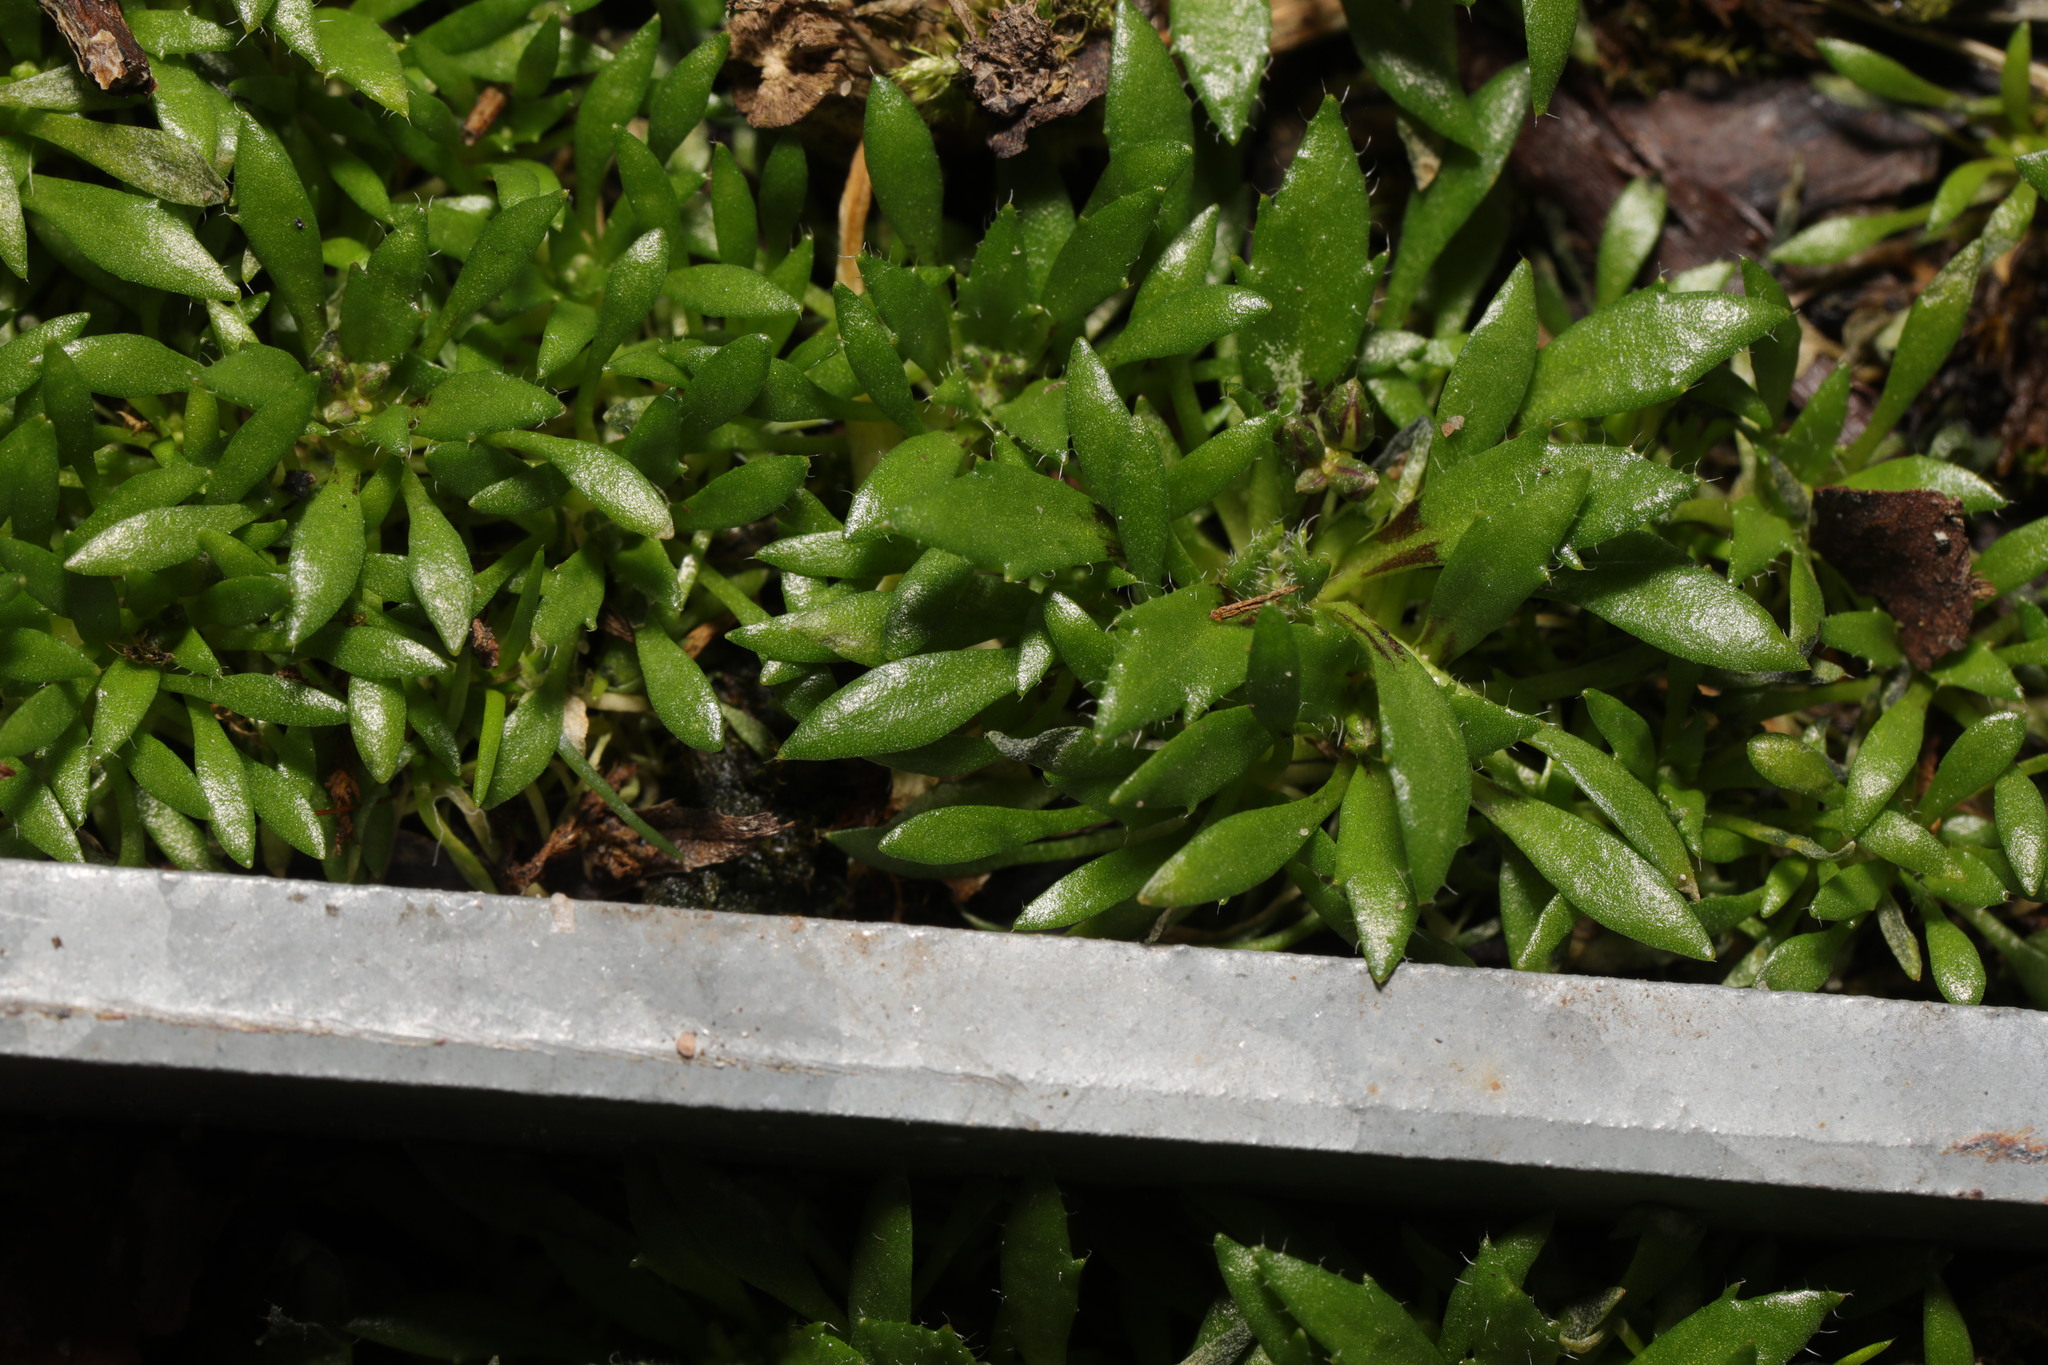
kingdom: Plantae
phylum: Tracheophyta
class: Magnoliopsida
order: Brassicales
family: Brassicaceae
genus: Draba
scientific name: Draba verna
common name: Spring draba
